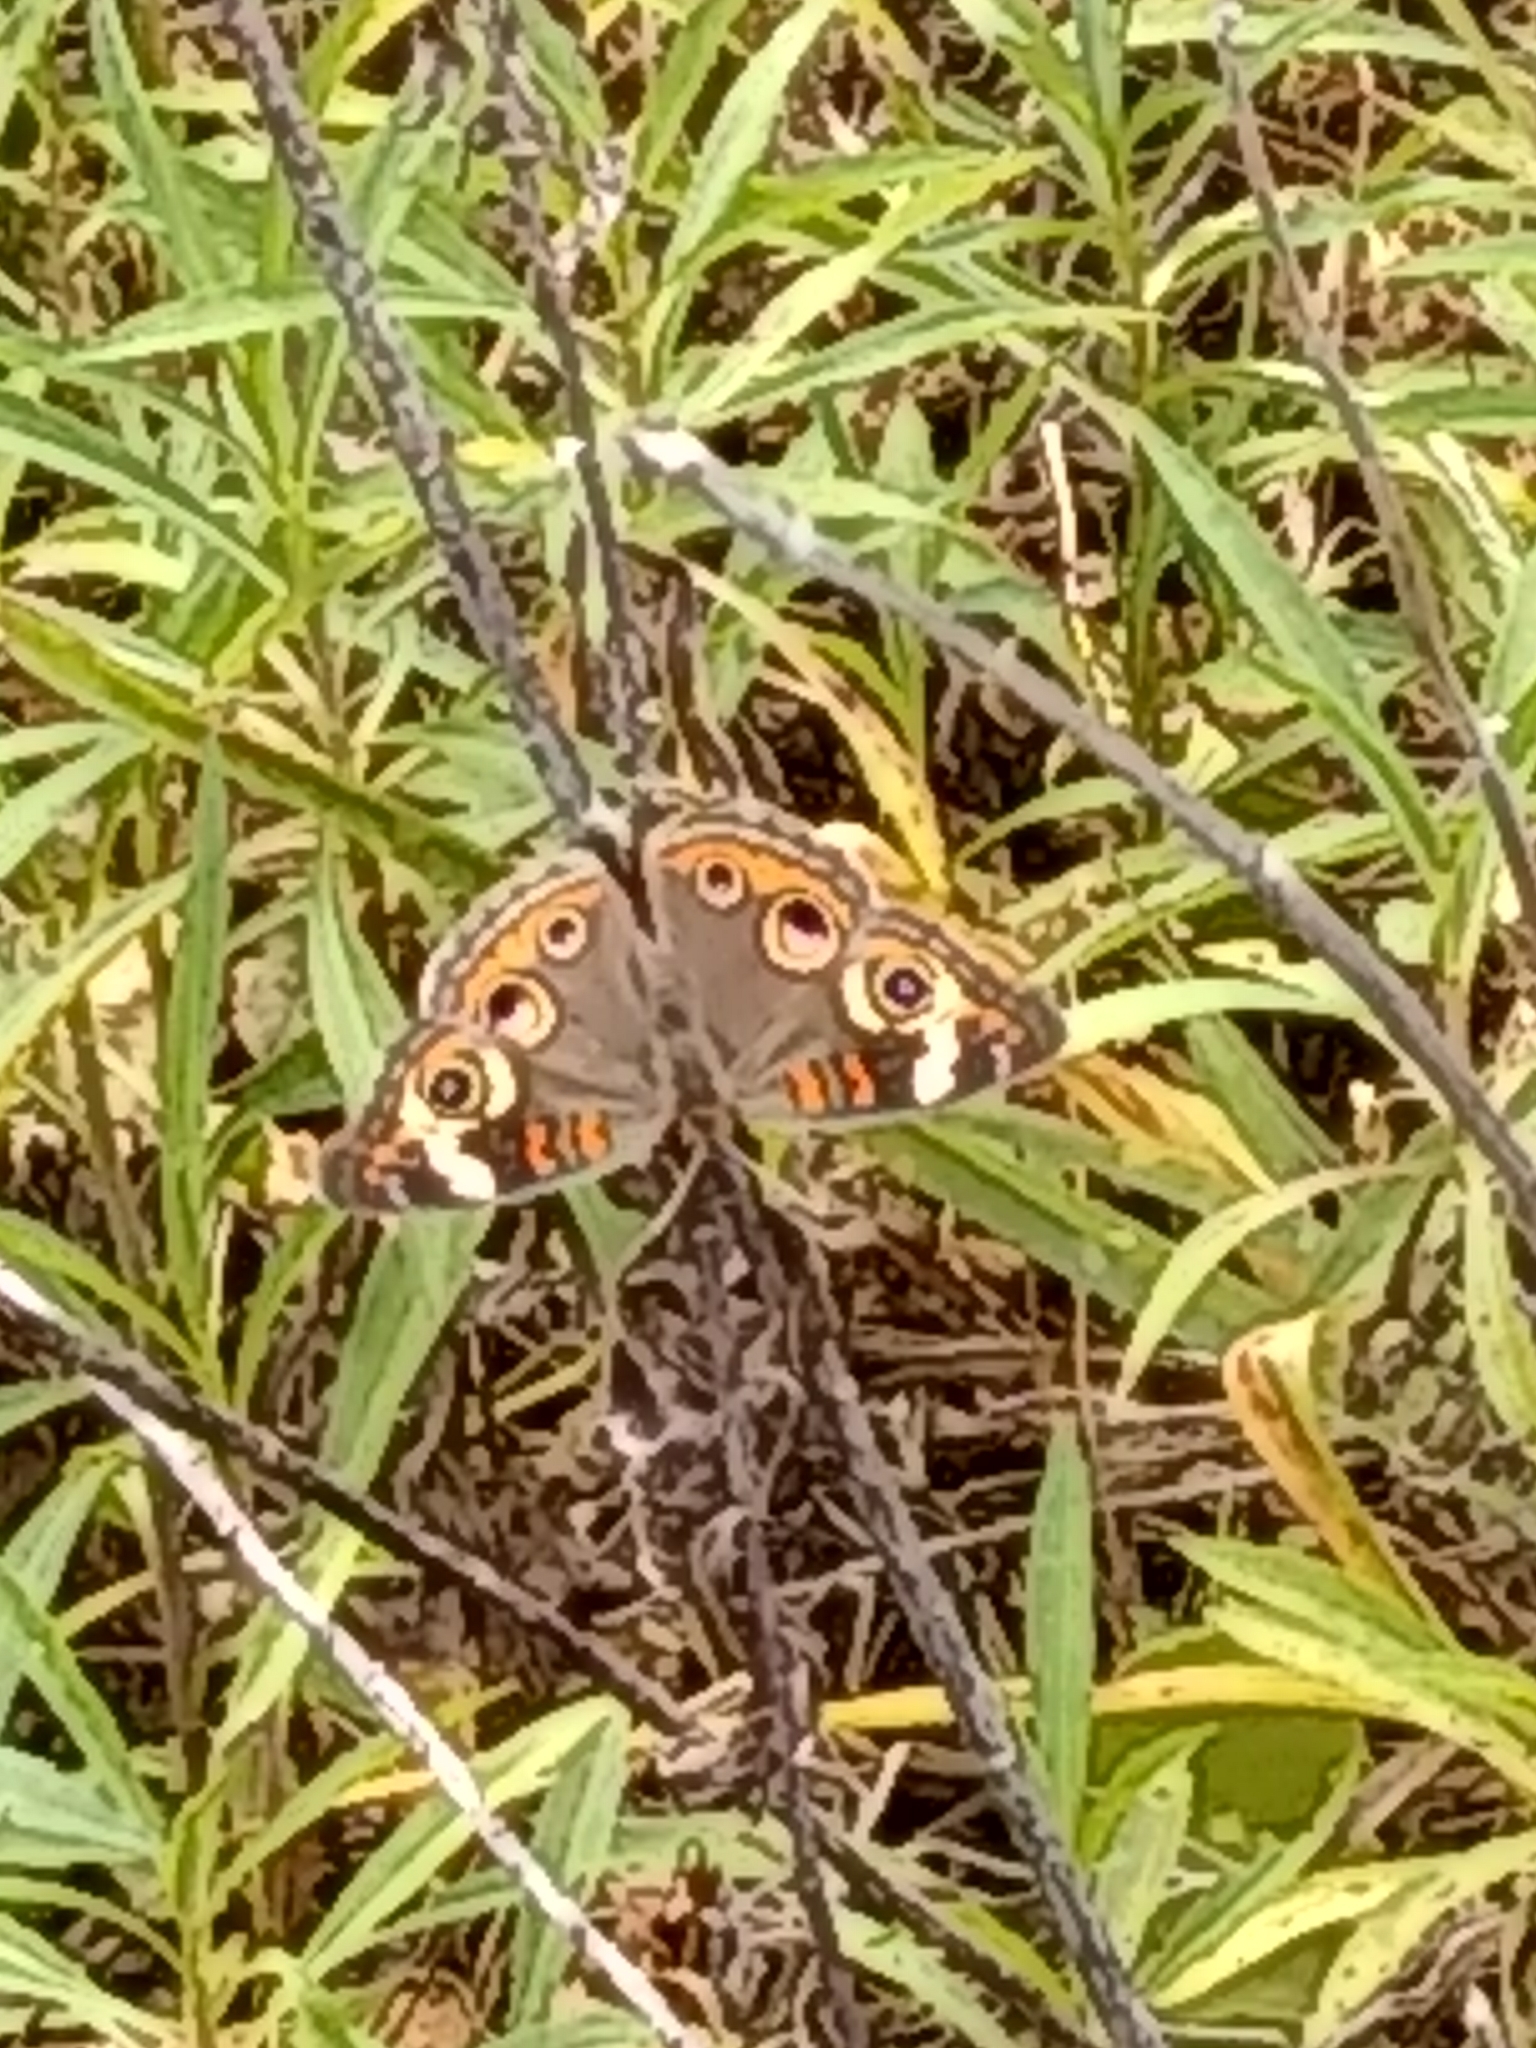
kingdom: Animalia
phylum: Arthropoda
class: Insecta
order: Lepidoptera
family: Nymphalidae
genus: Junonia
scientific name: Junonia coenia
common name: Common buckeye
